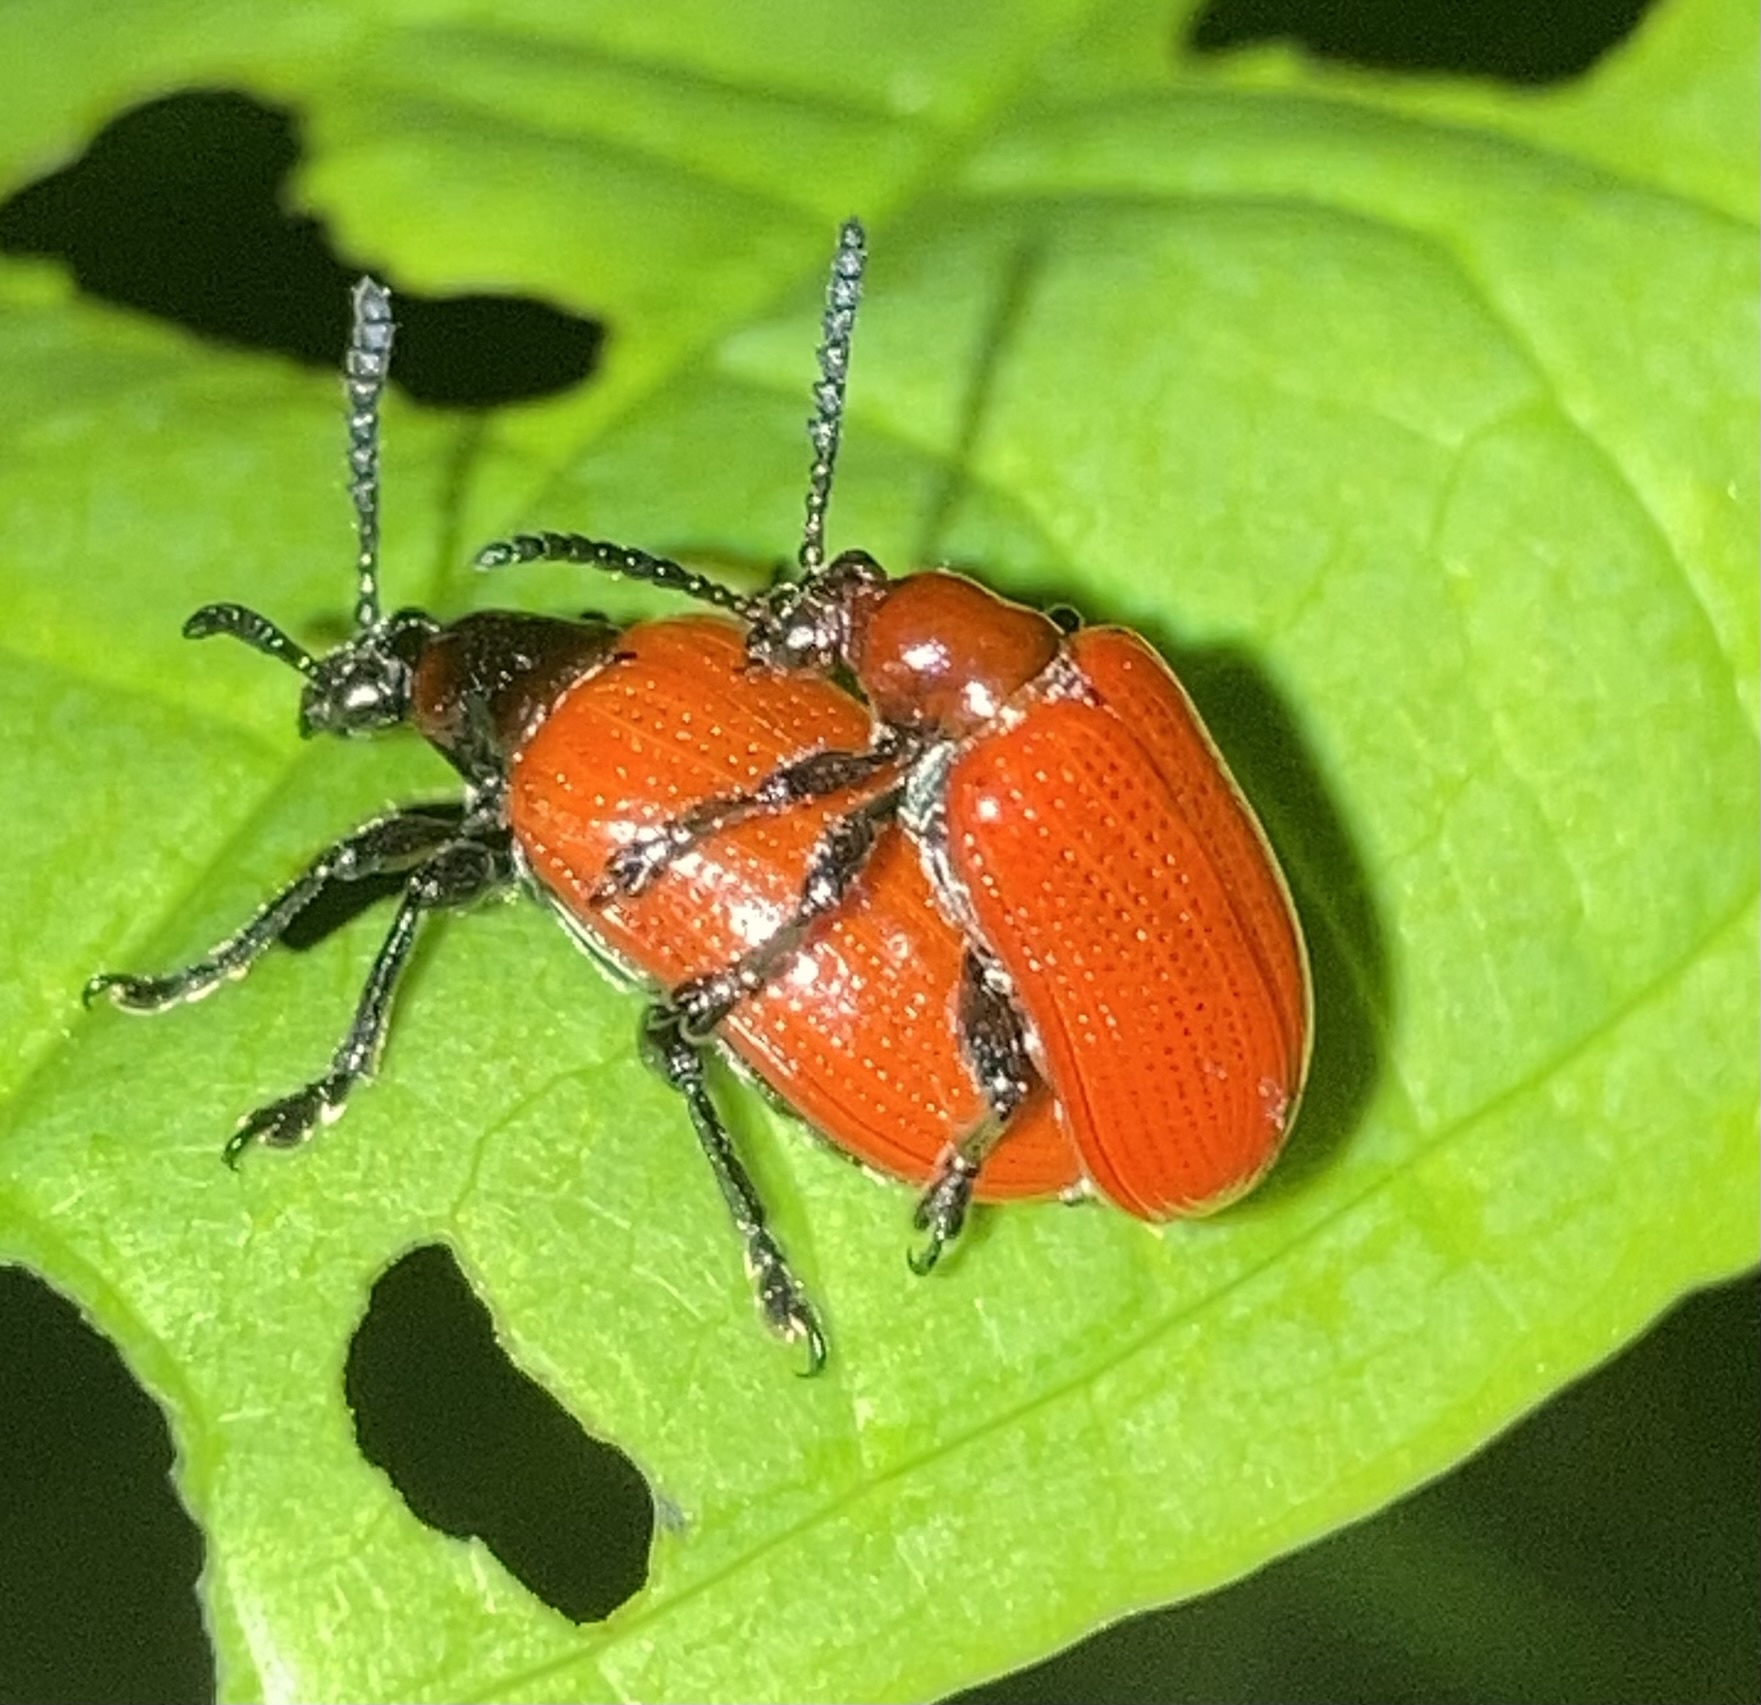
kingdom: Animalia
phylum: Arthropoda
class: Insecta
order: Coleoptera
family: Chrysomelidae
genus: Lilioceris
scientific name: Lilioceris cheni
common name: Leaf beetle
